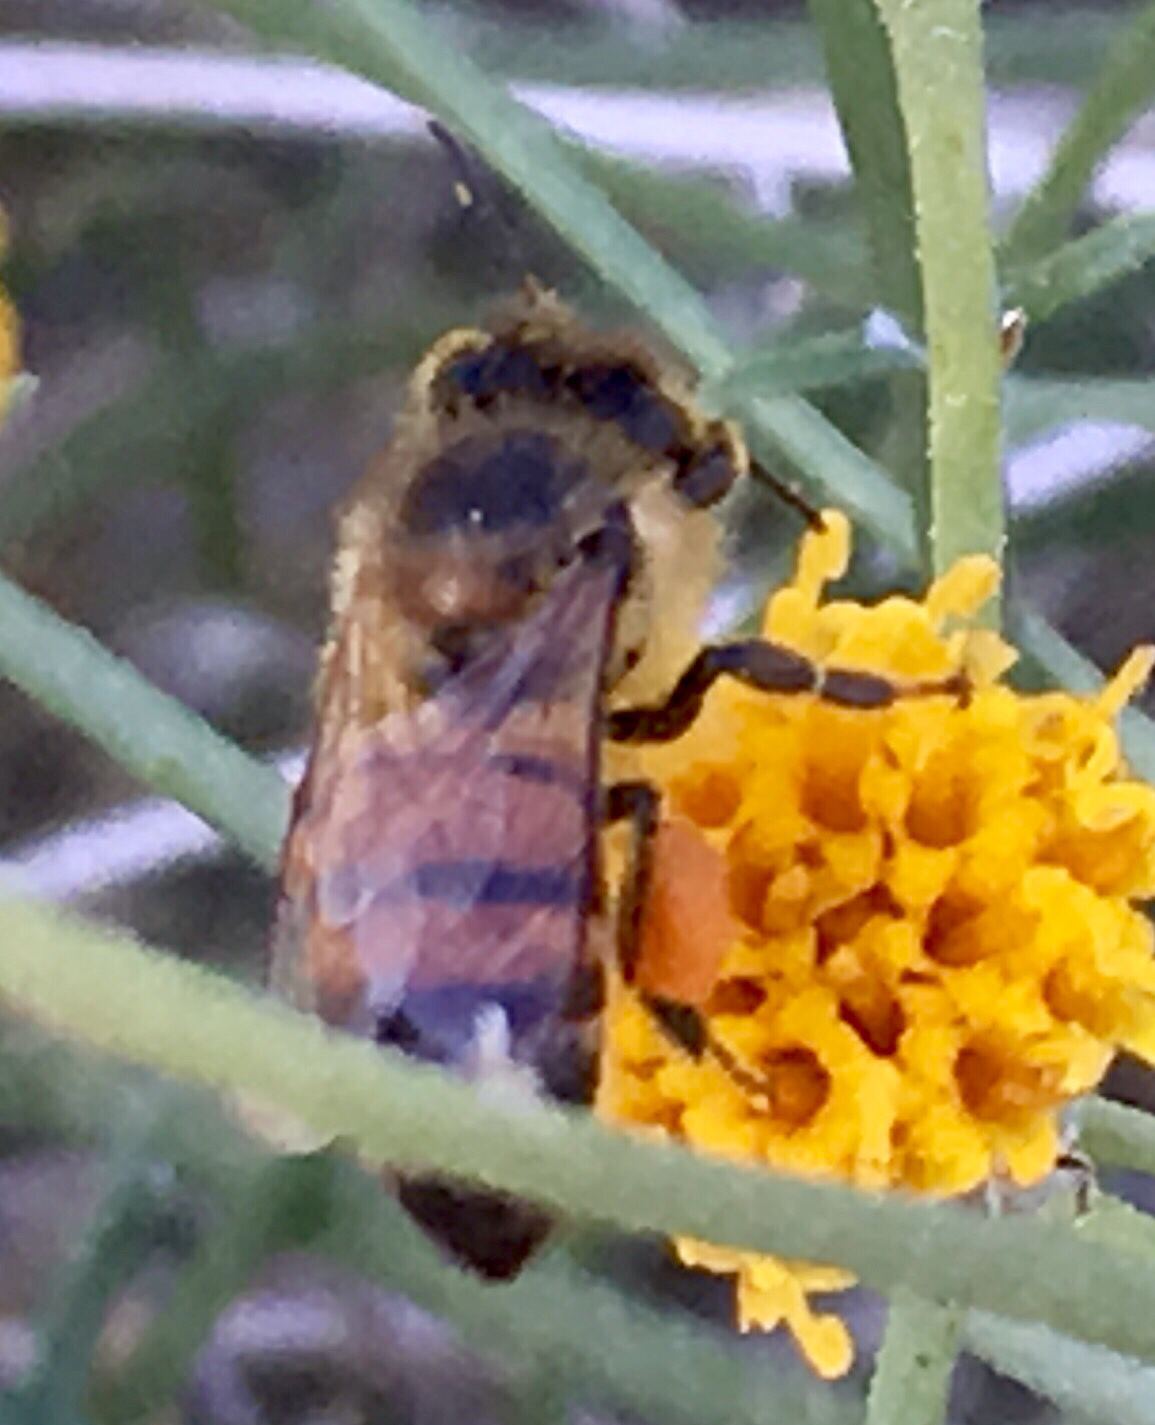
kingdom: Animalia
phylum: Arthropoda
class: Insecta
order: Hymenoptera
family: Apidae
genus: Apis
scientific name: Apis mellifera
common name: Honey bee
